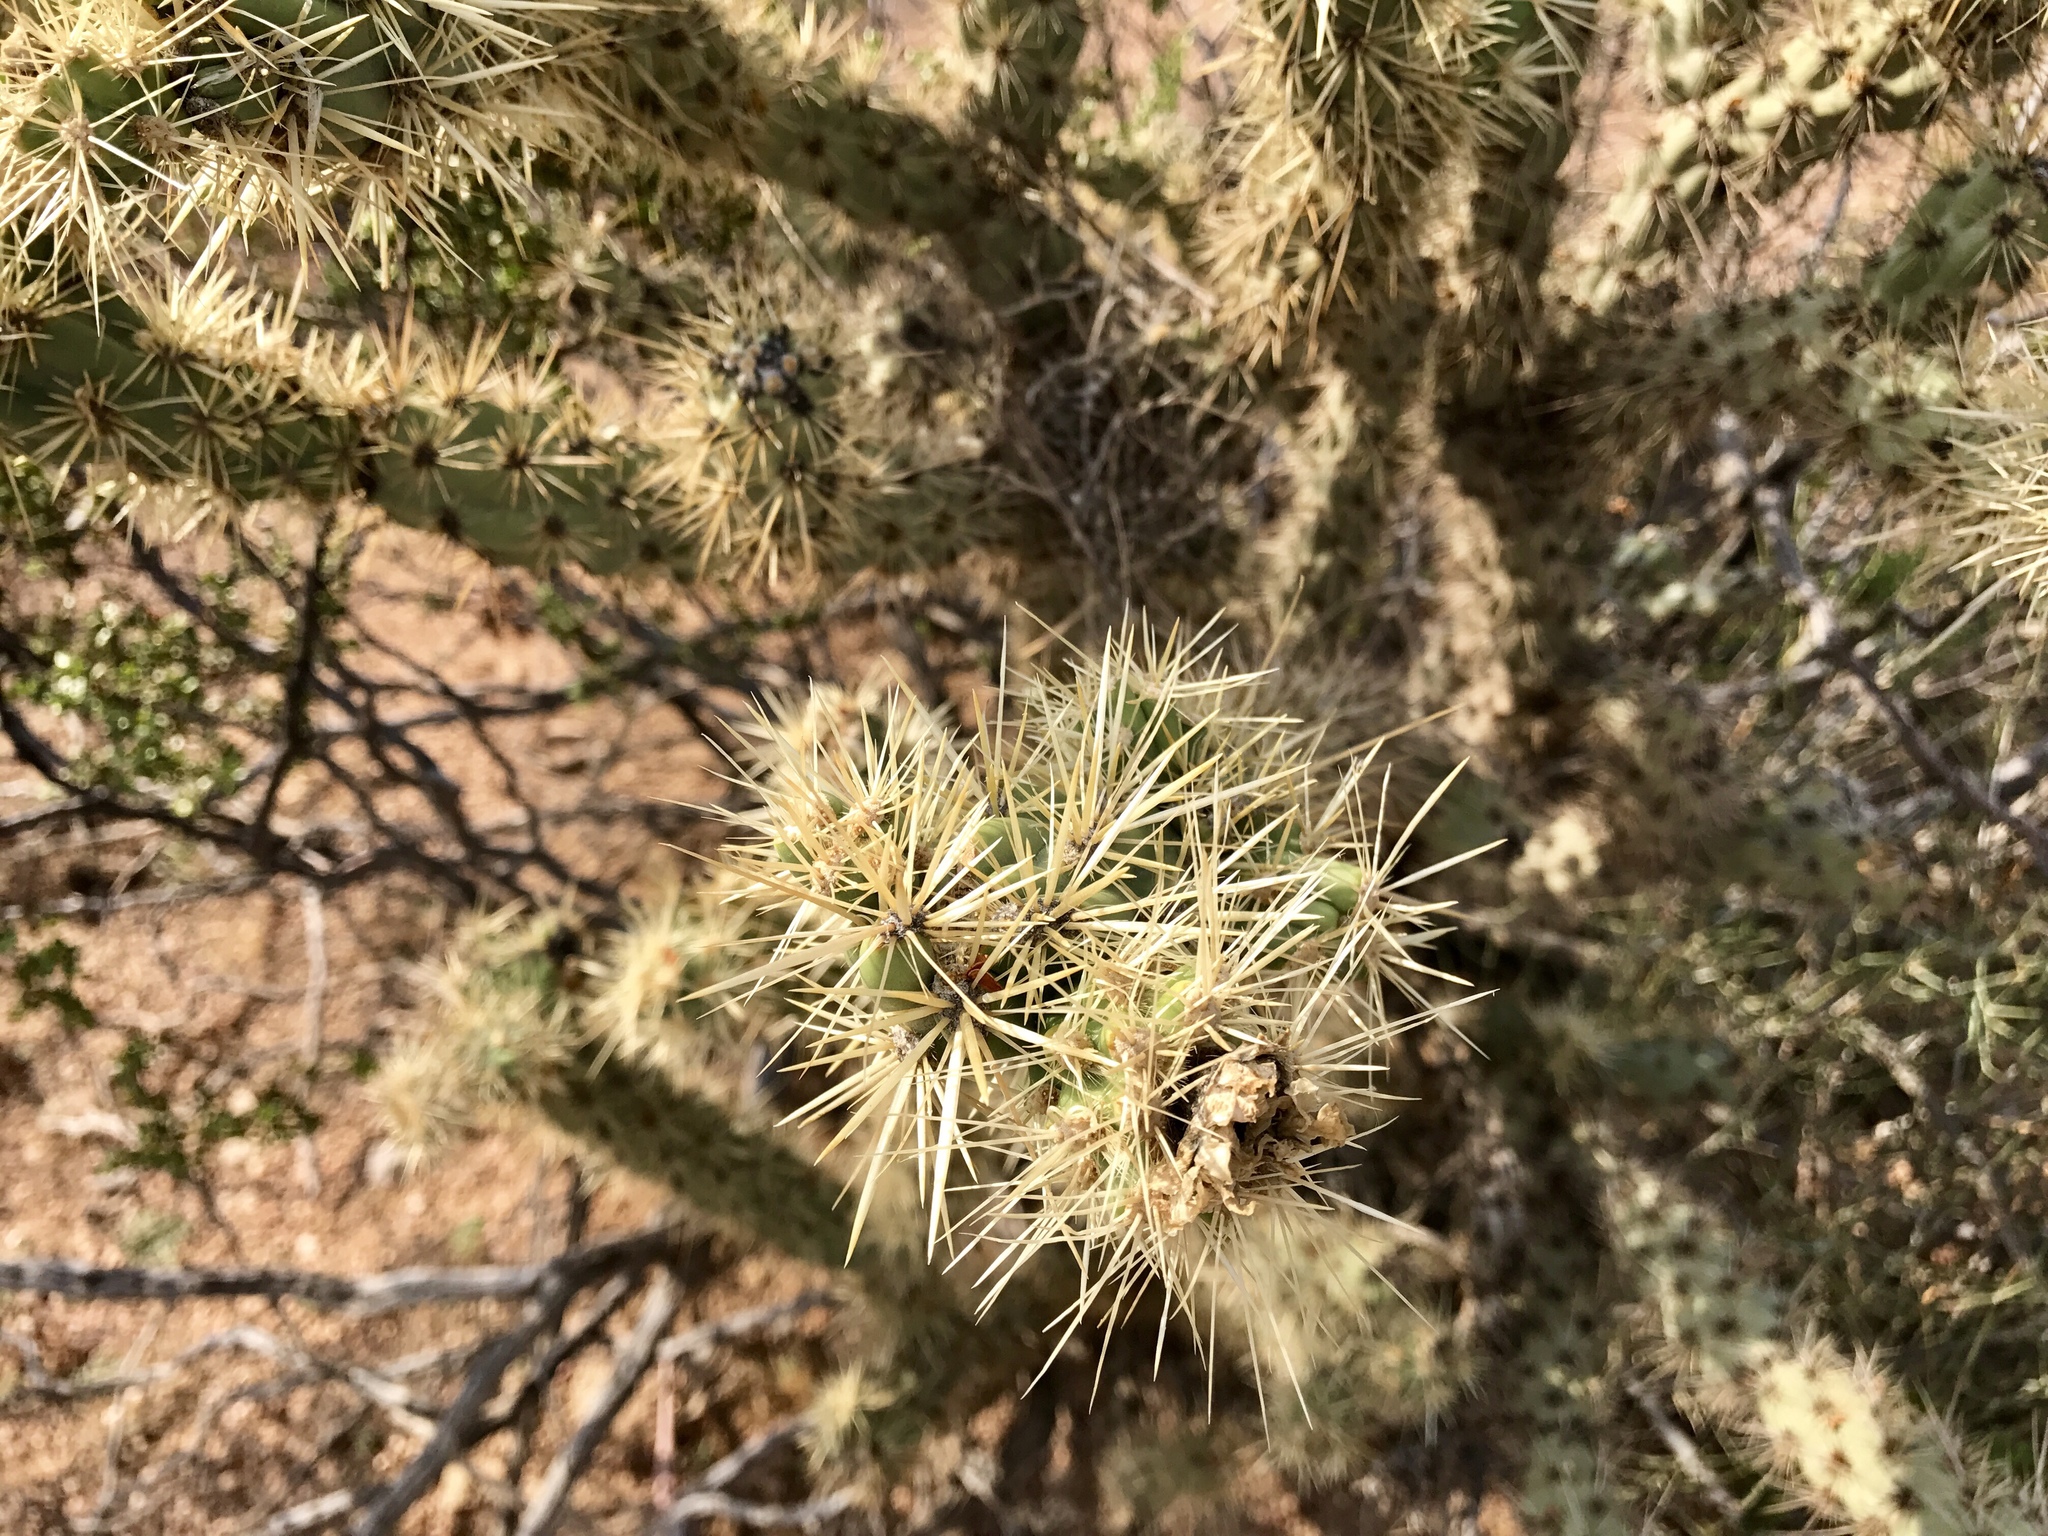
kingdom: Plantae
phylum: Tracheophyta
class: Magnoliopsida
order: Caryophyllales
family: Cactaceae
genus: Cylindropuntia
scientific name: Cylindropuntia acanthocarpa
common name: Buckhorn cholla
